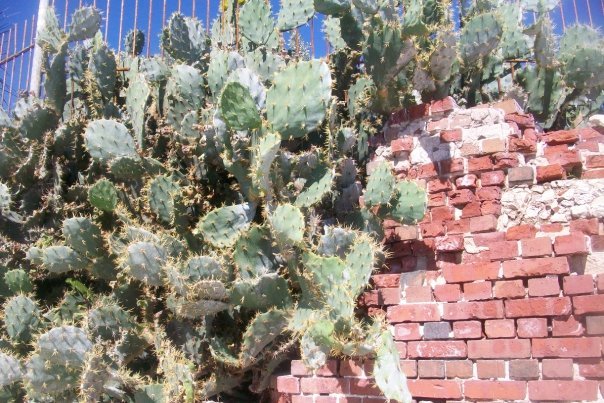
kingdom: Plantae
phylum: Tracheophyta
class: Magnoliopsida
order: Caryophyllales
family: Cactaceae
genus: Opuntia
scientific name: Opuntia dillenii
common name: Sour prickle
